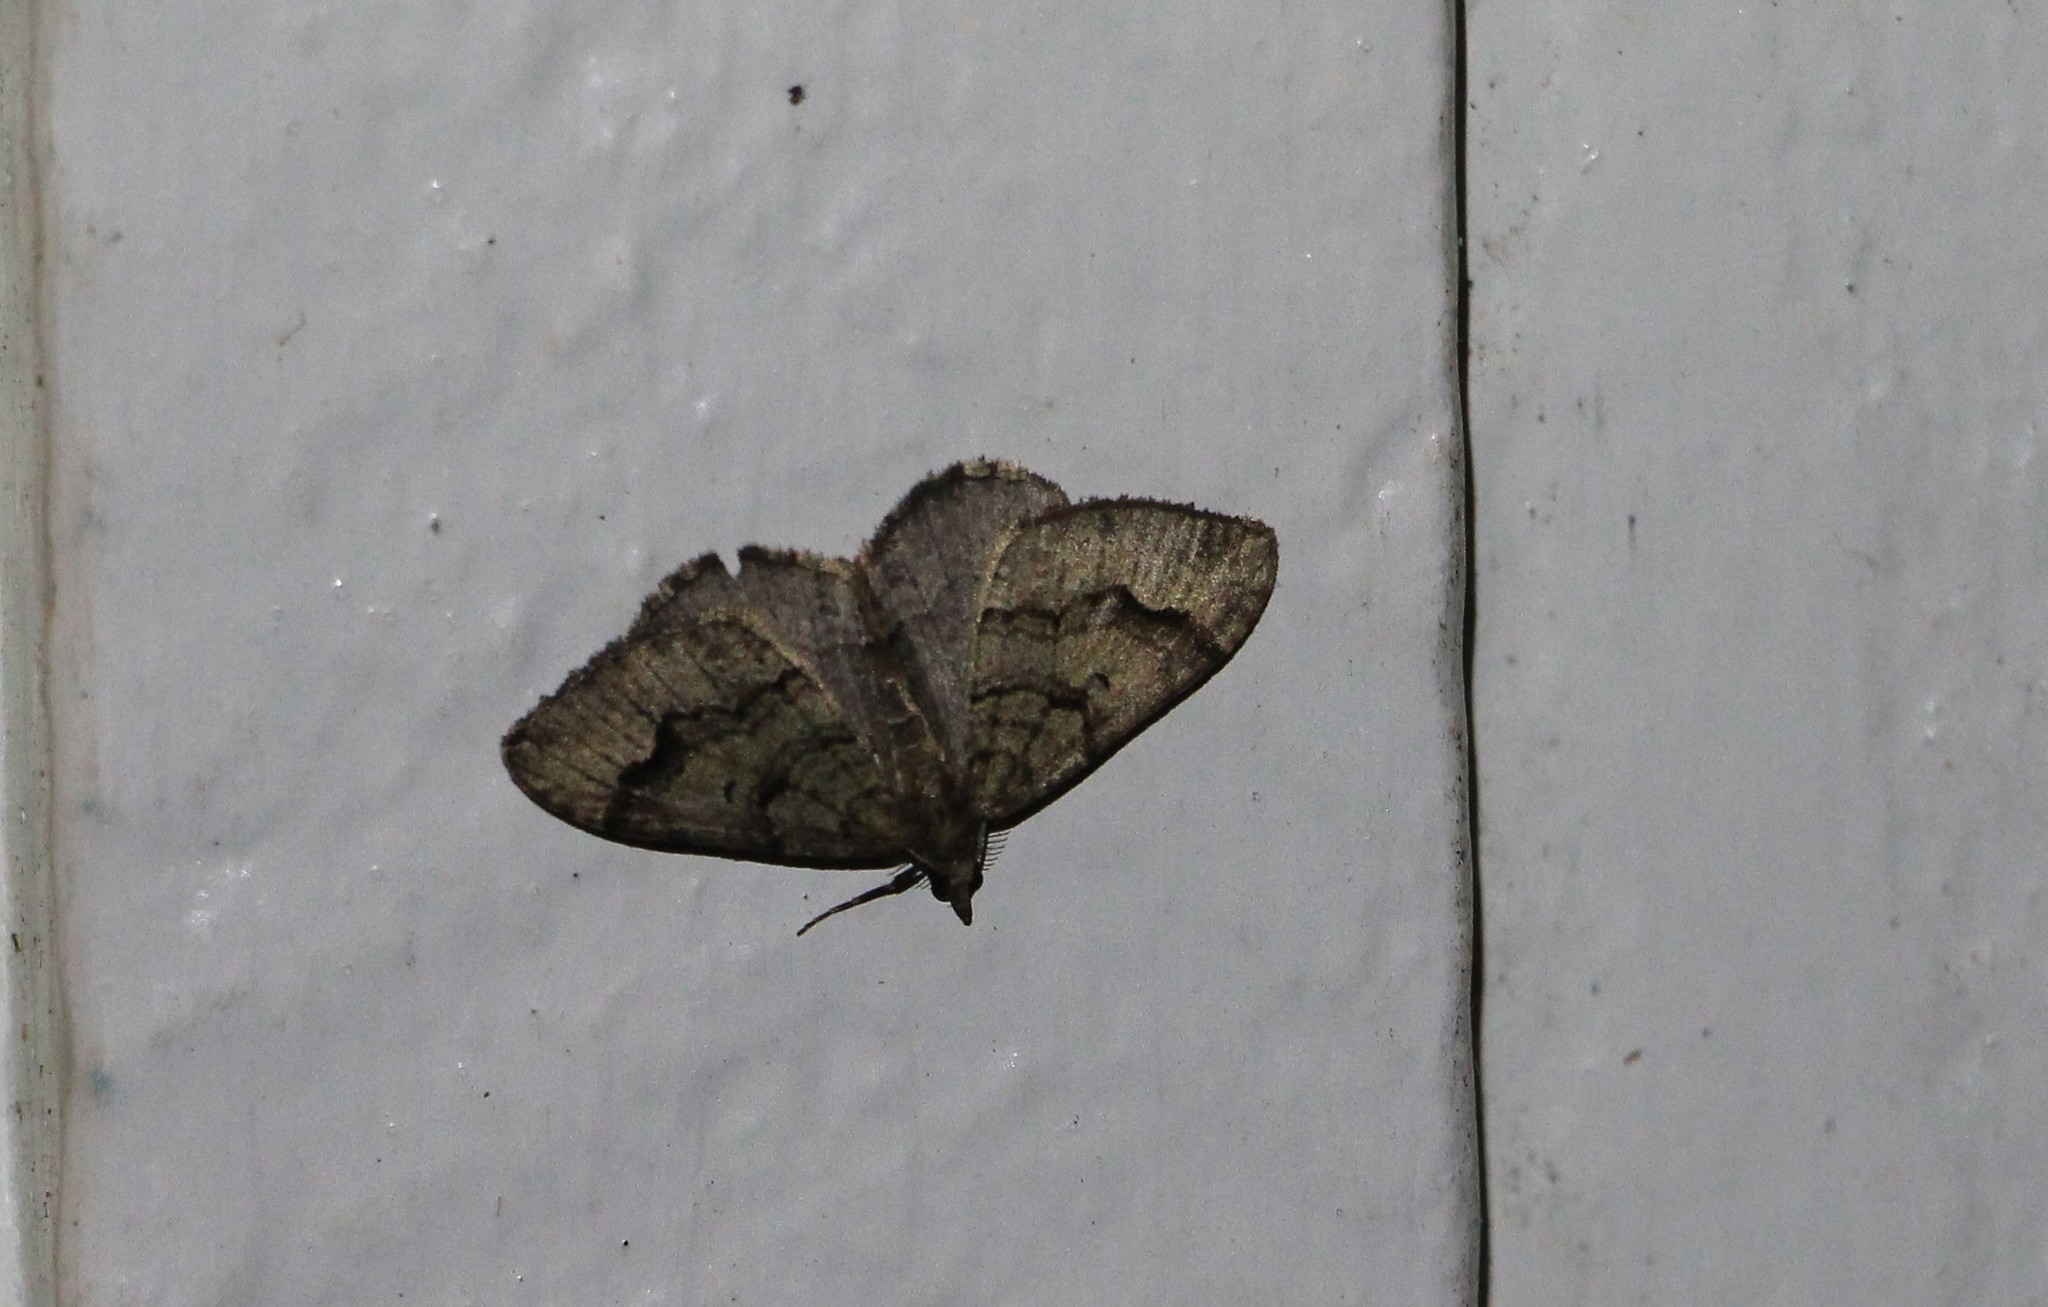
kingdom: Animalia
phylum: Arthropoda
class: Insecta
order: Lepidoptera
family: Geometridae
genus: Epyaxa
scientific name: Epyaxa rosearia
